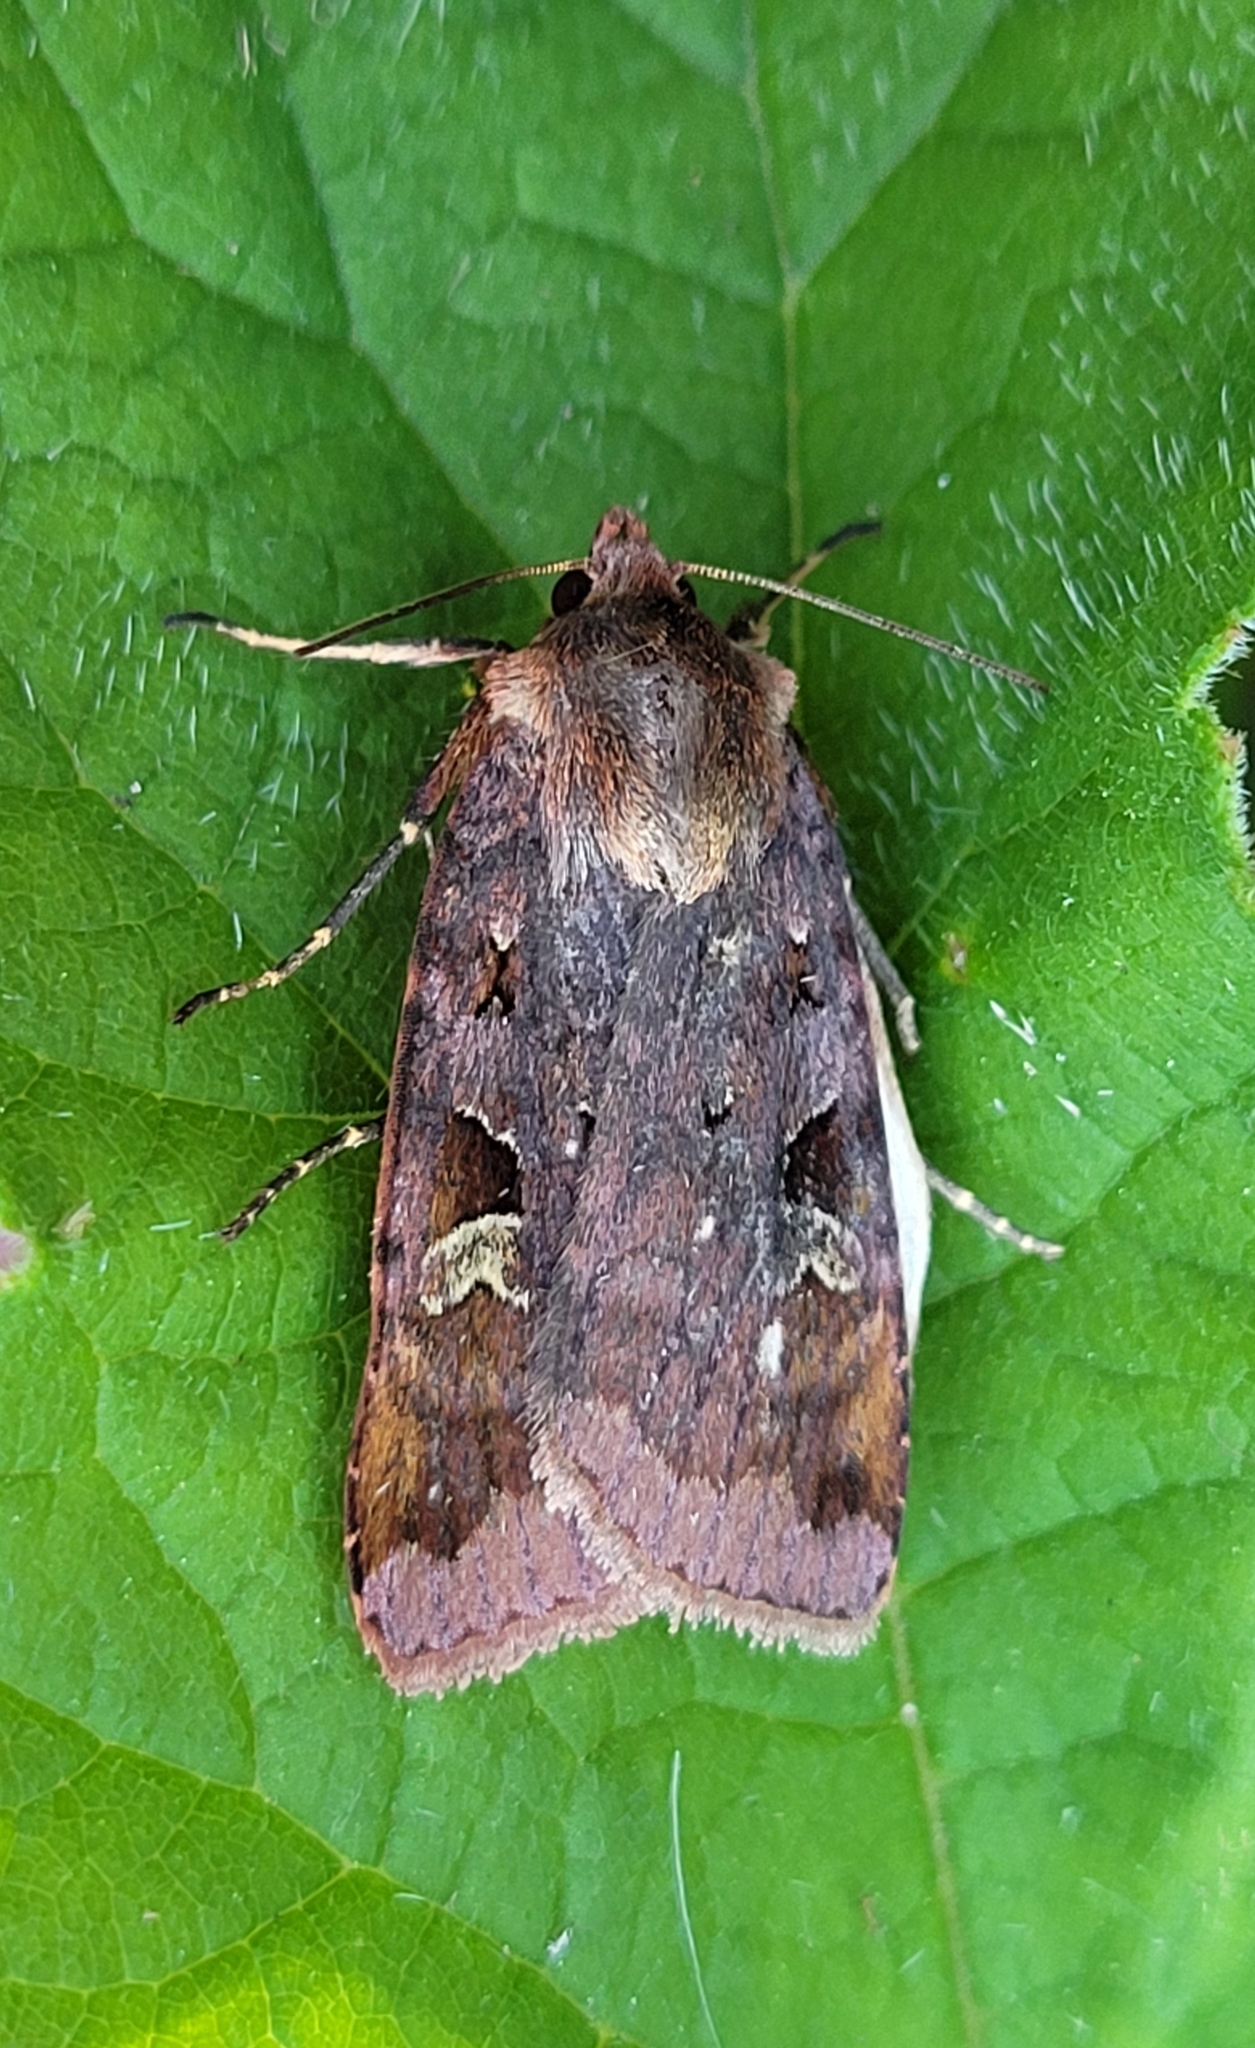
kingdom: Animalia
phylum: Arthropoda
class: Insecta
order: Lepidoptera
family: Noctuidae
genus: Diarsia
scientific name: Diarsia brunnea
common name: Purple clay
